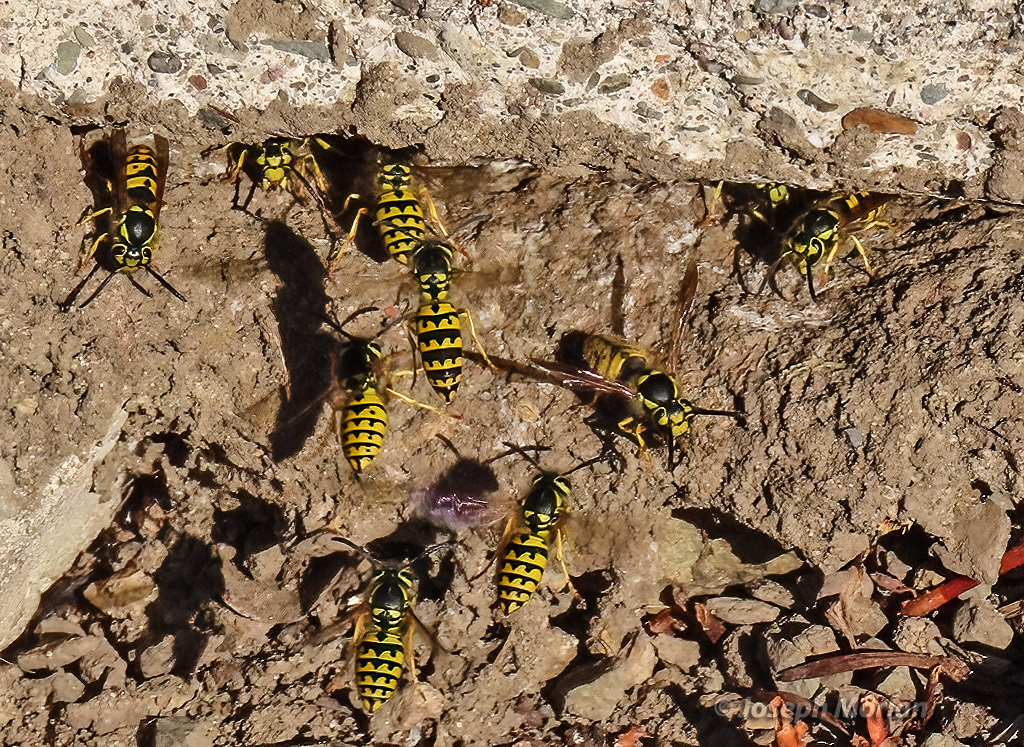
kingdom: Animalia
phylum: Arthropoda
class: Insecta
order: Hymenoptera
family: Vespidae
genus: Vespula
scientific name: Vespula pensylvanica
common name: Western yellowjacket
